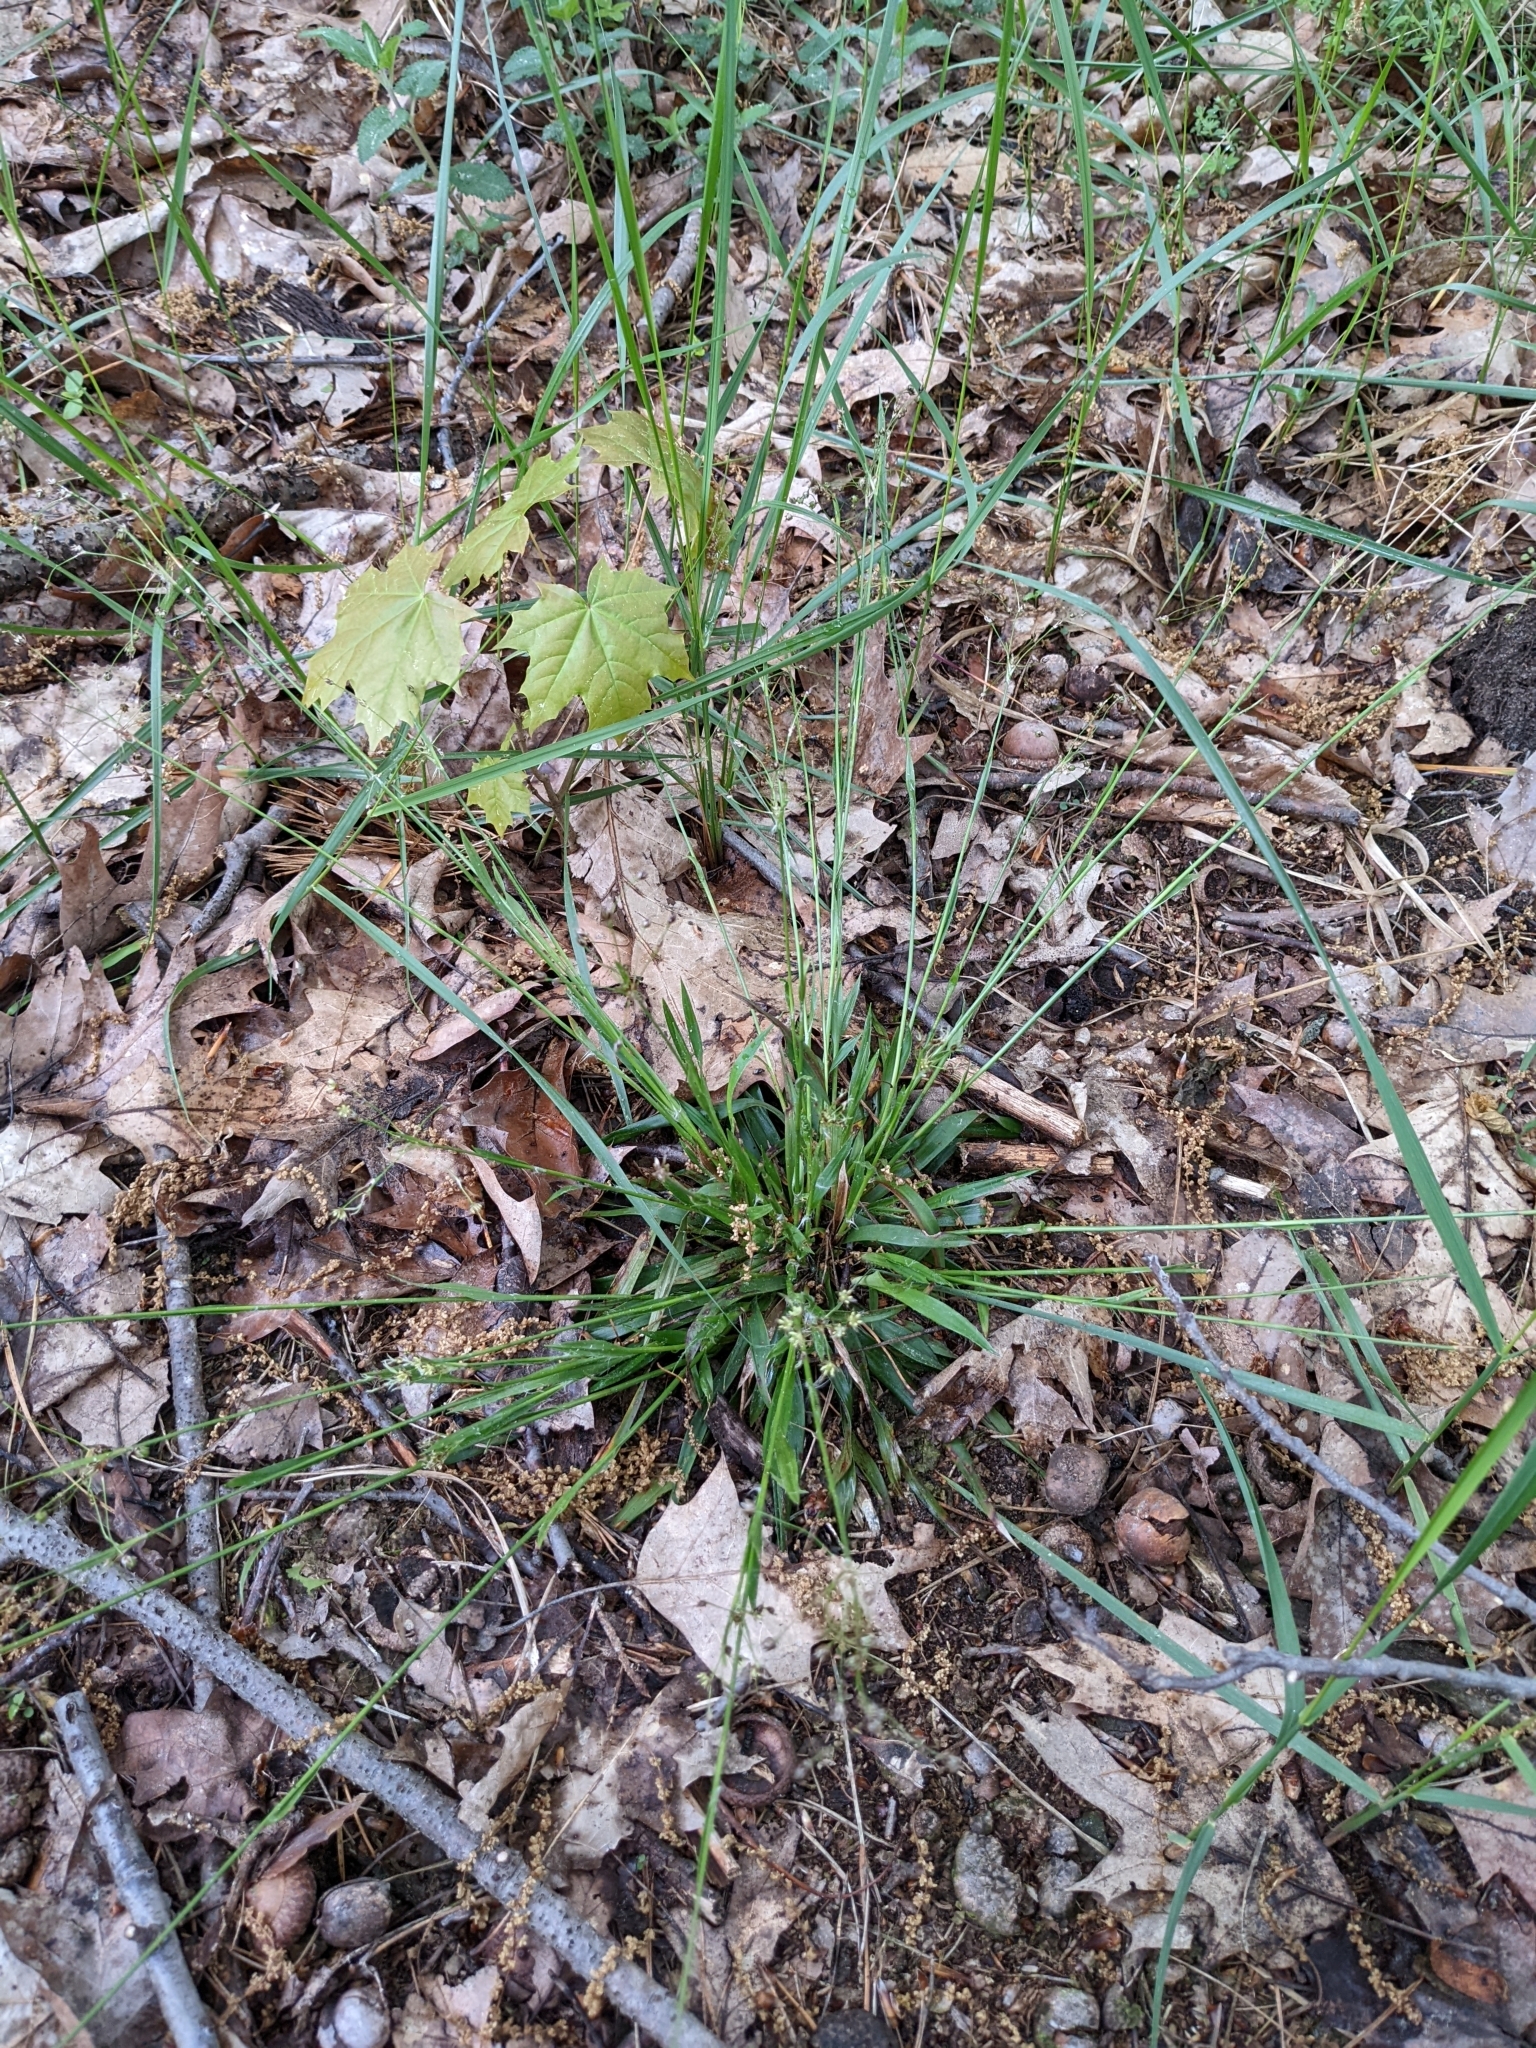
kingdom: Plantae
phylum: Tracheophyta
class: Liliopsida
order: Poales
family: Juncaceae
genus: Luzula
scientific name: Luzula pilosa
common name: Hairy wood-rush
